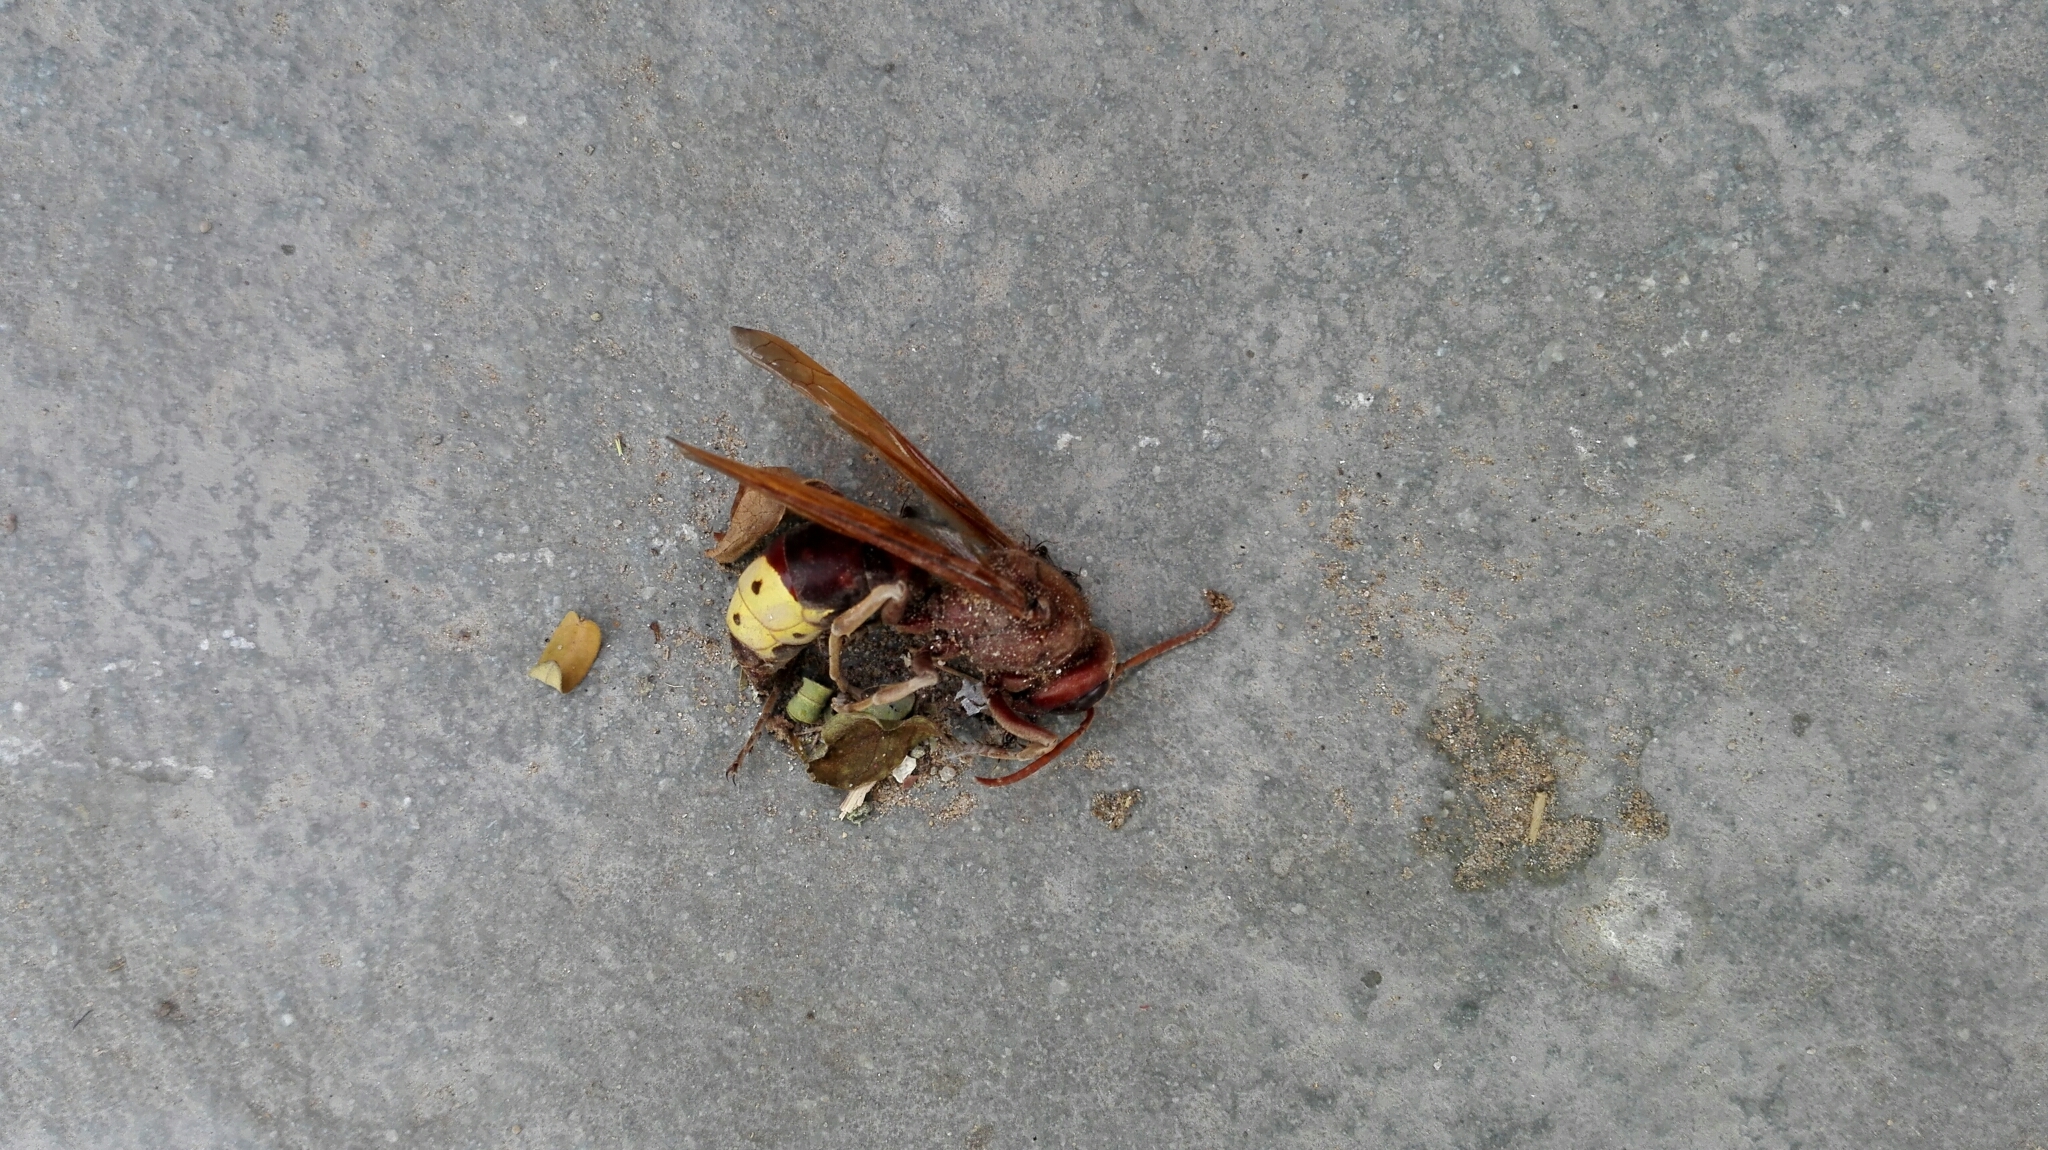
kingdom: Animalia
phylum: Arthropoda
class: Insecta
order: Hymenoptera
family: Vespidae
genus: Vespa
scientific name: Vespa orientalis
